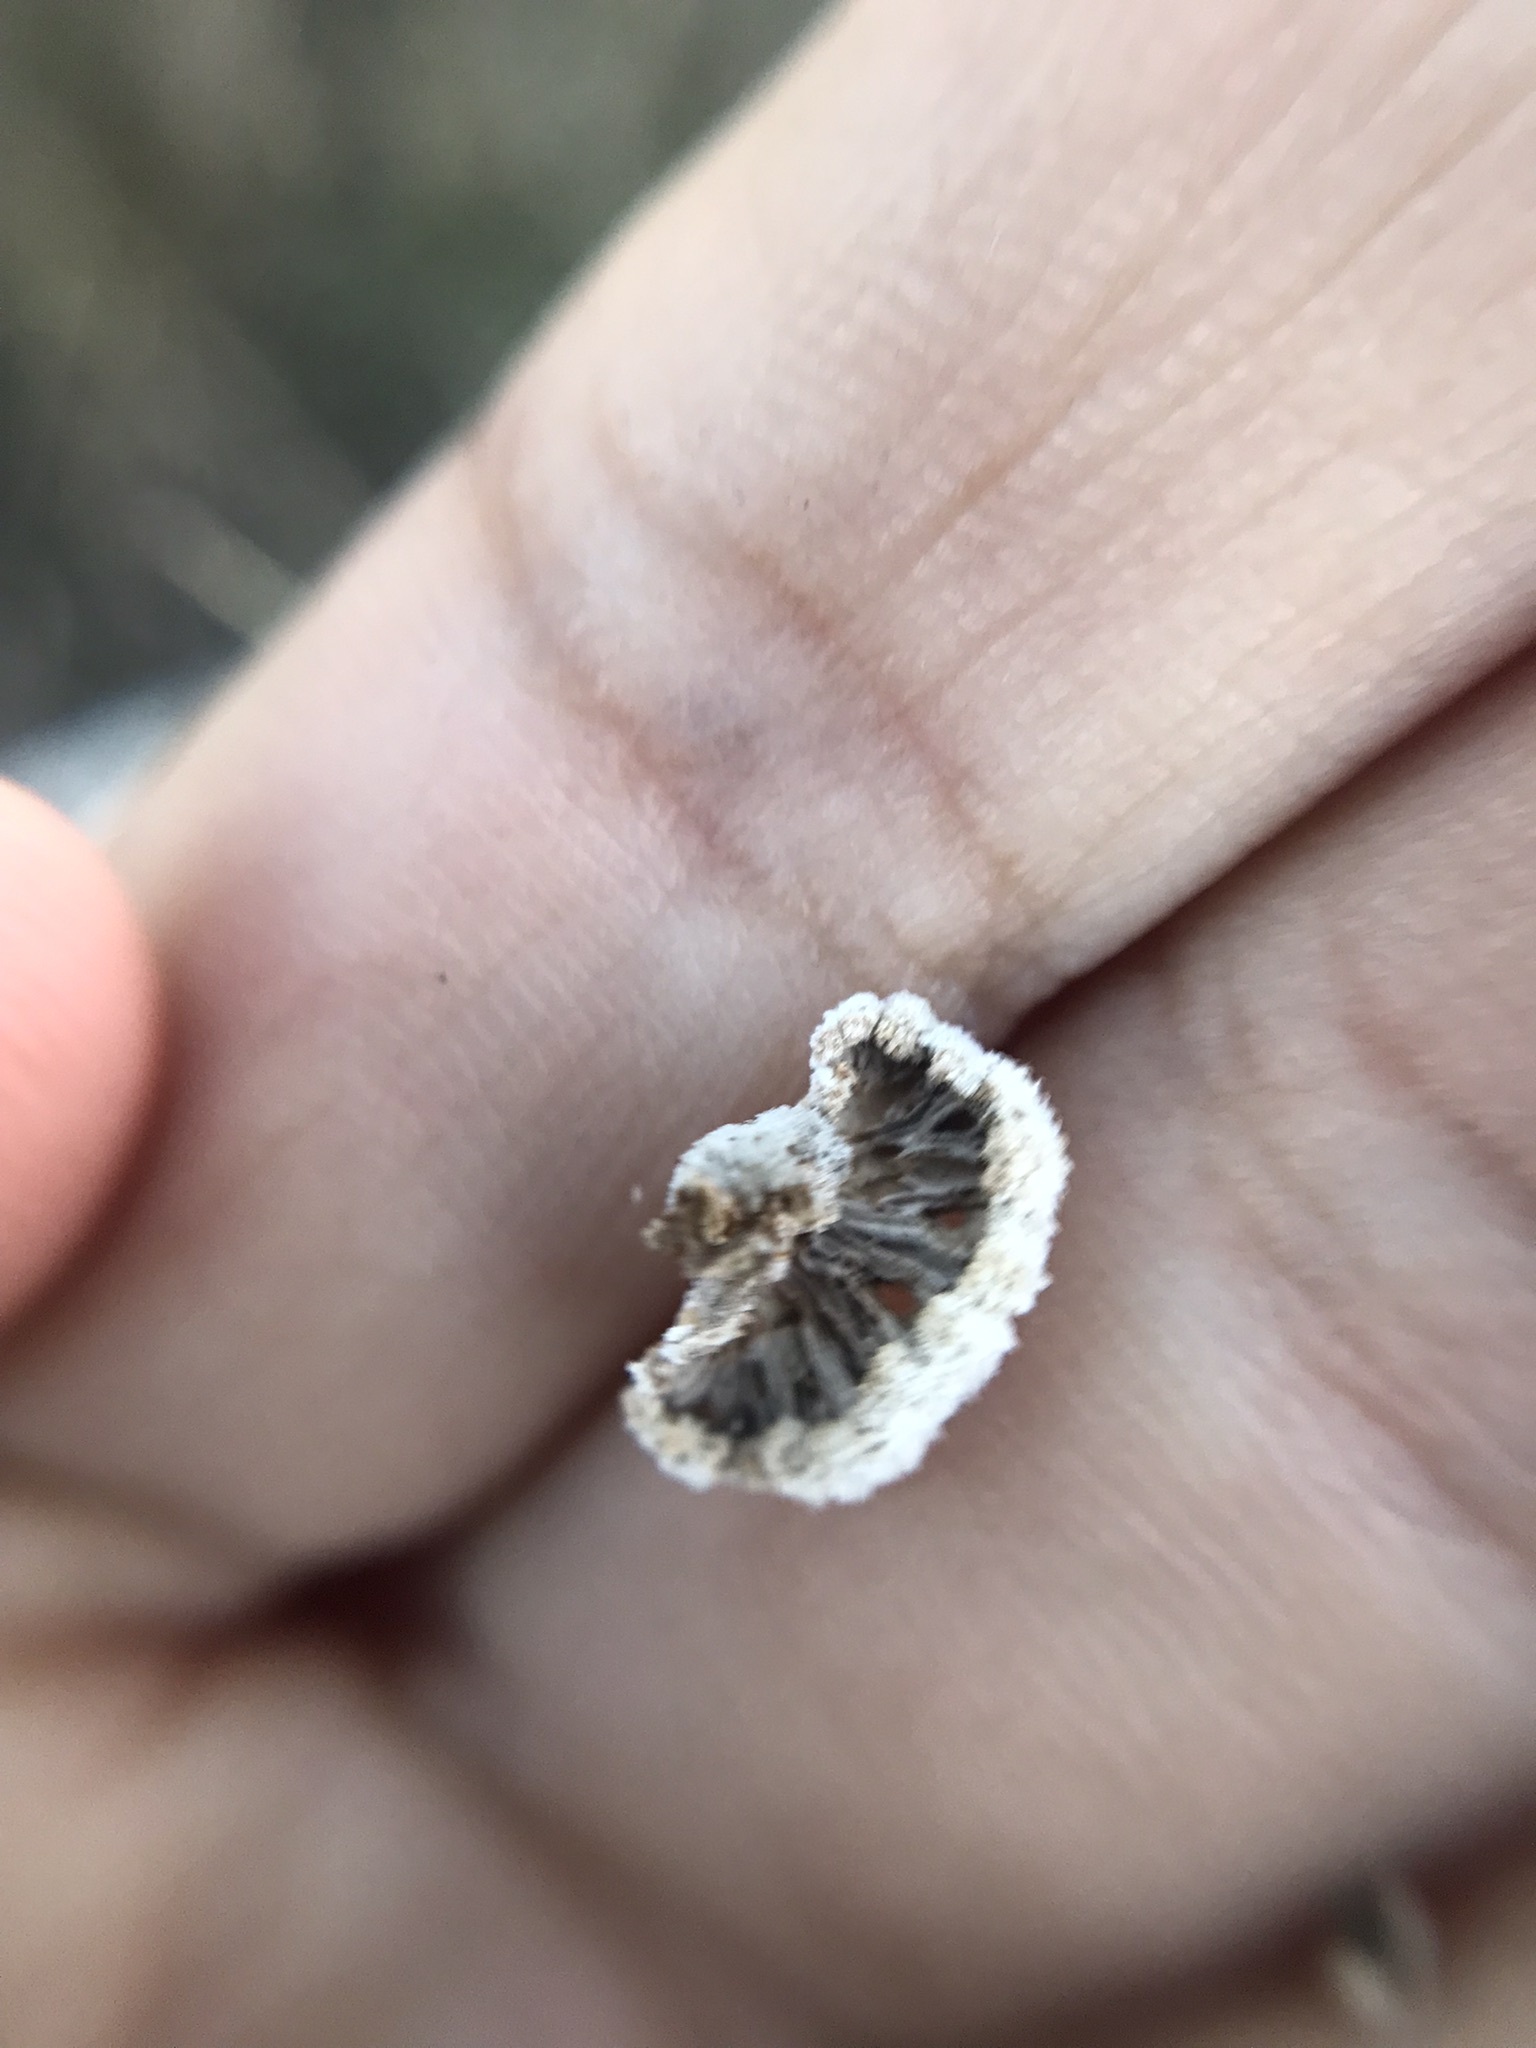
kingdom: Fungi
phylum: Basidiomycota
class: Agaricomycetes
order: Agaricales
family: Schizophyllaceae
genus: Schizophyllum
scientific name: Schizophyllum commune
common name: Common porecrust
